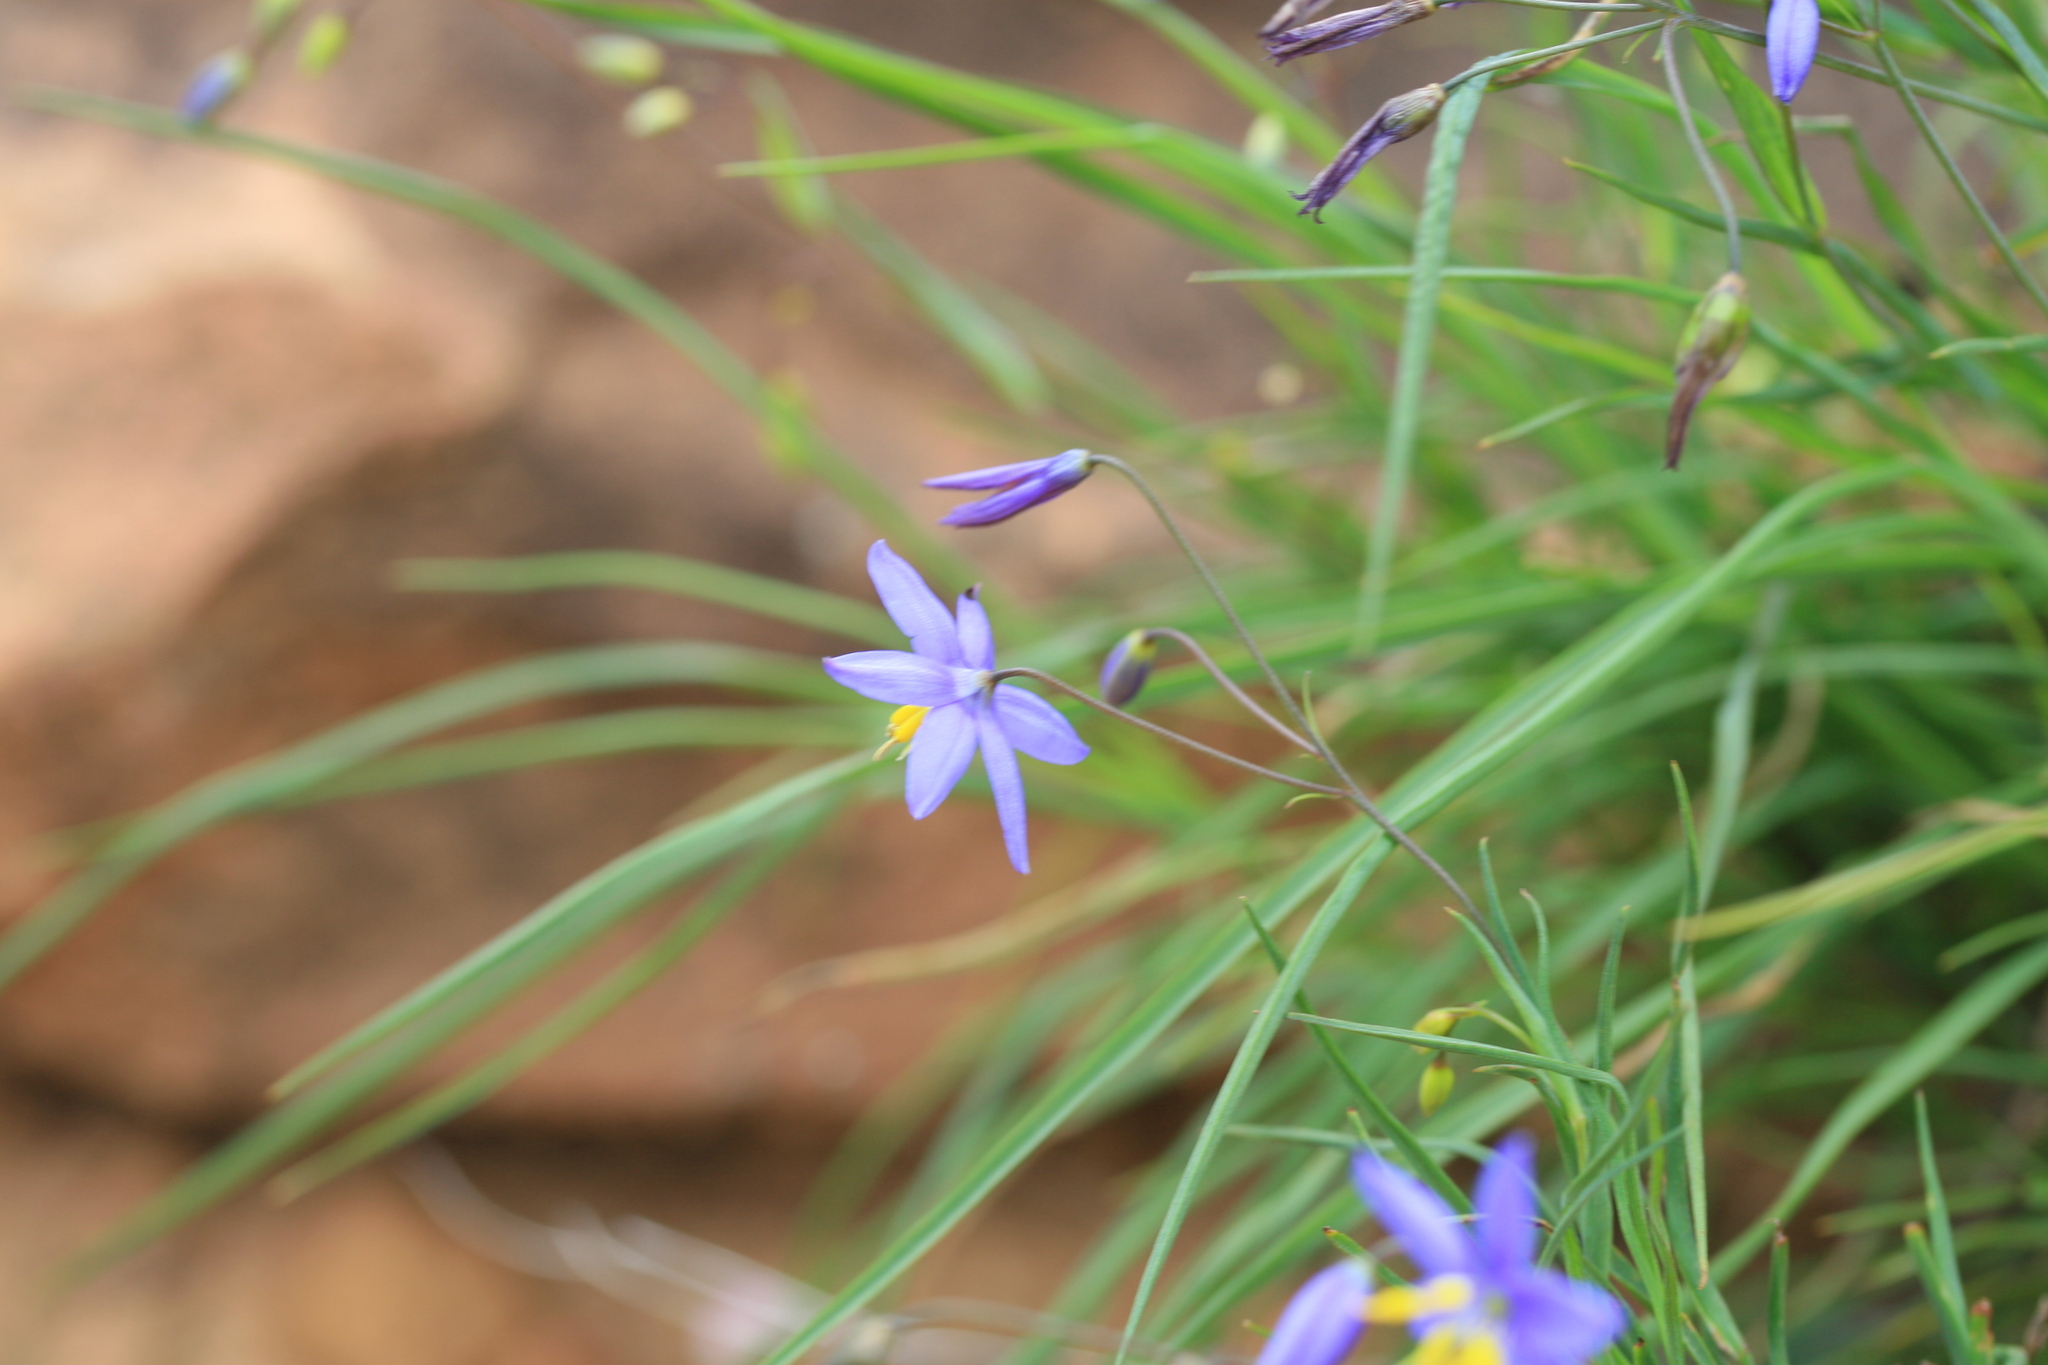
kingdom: Plantae
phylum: Tracheophyta
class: Liliopsida
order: Asparagales
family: Asphodelaceae
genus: Stypandra
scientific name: Stypandra glauca
